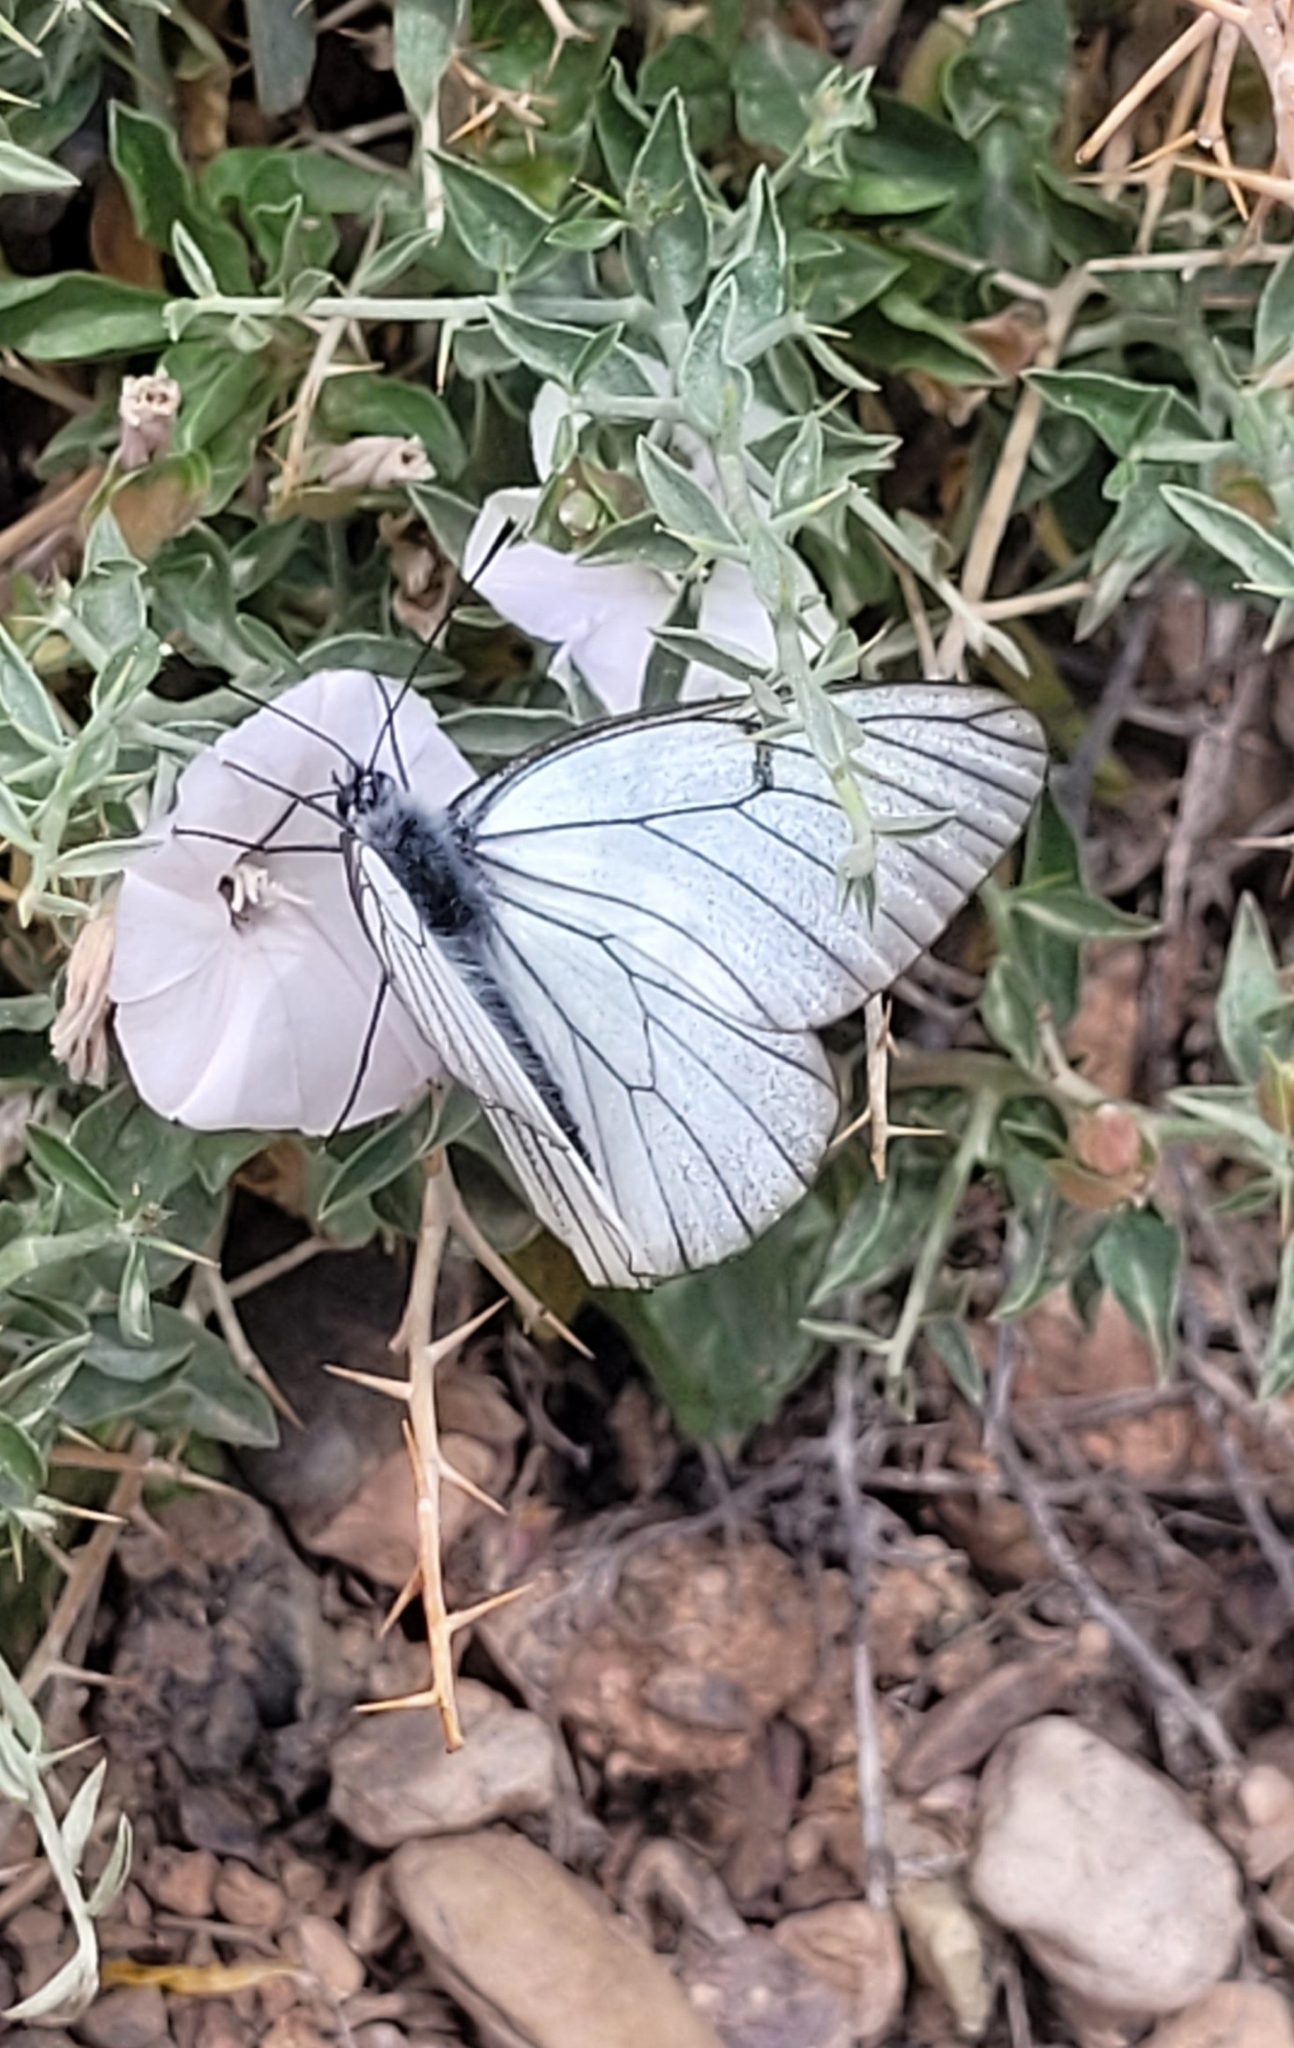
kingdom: Animalia
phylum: Arthropoda
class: Insecta
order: Lepidoptera
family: Pieridae
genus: Aporia
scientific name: Aporia crataegi
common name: Black-veined white
